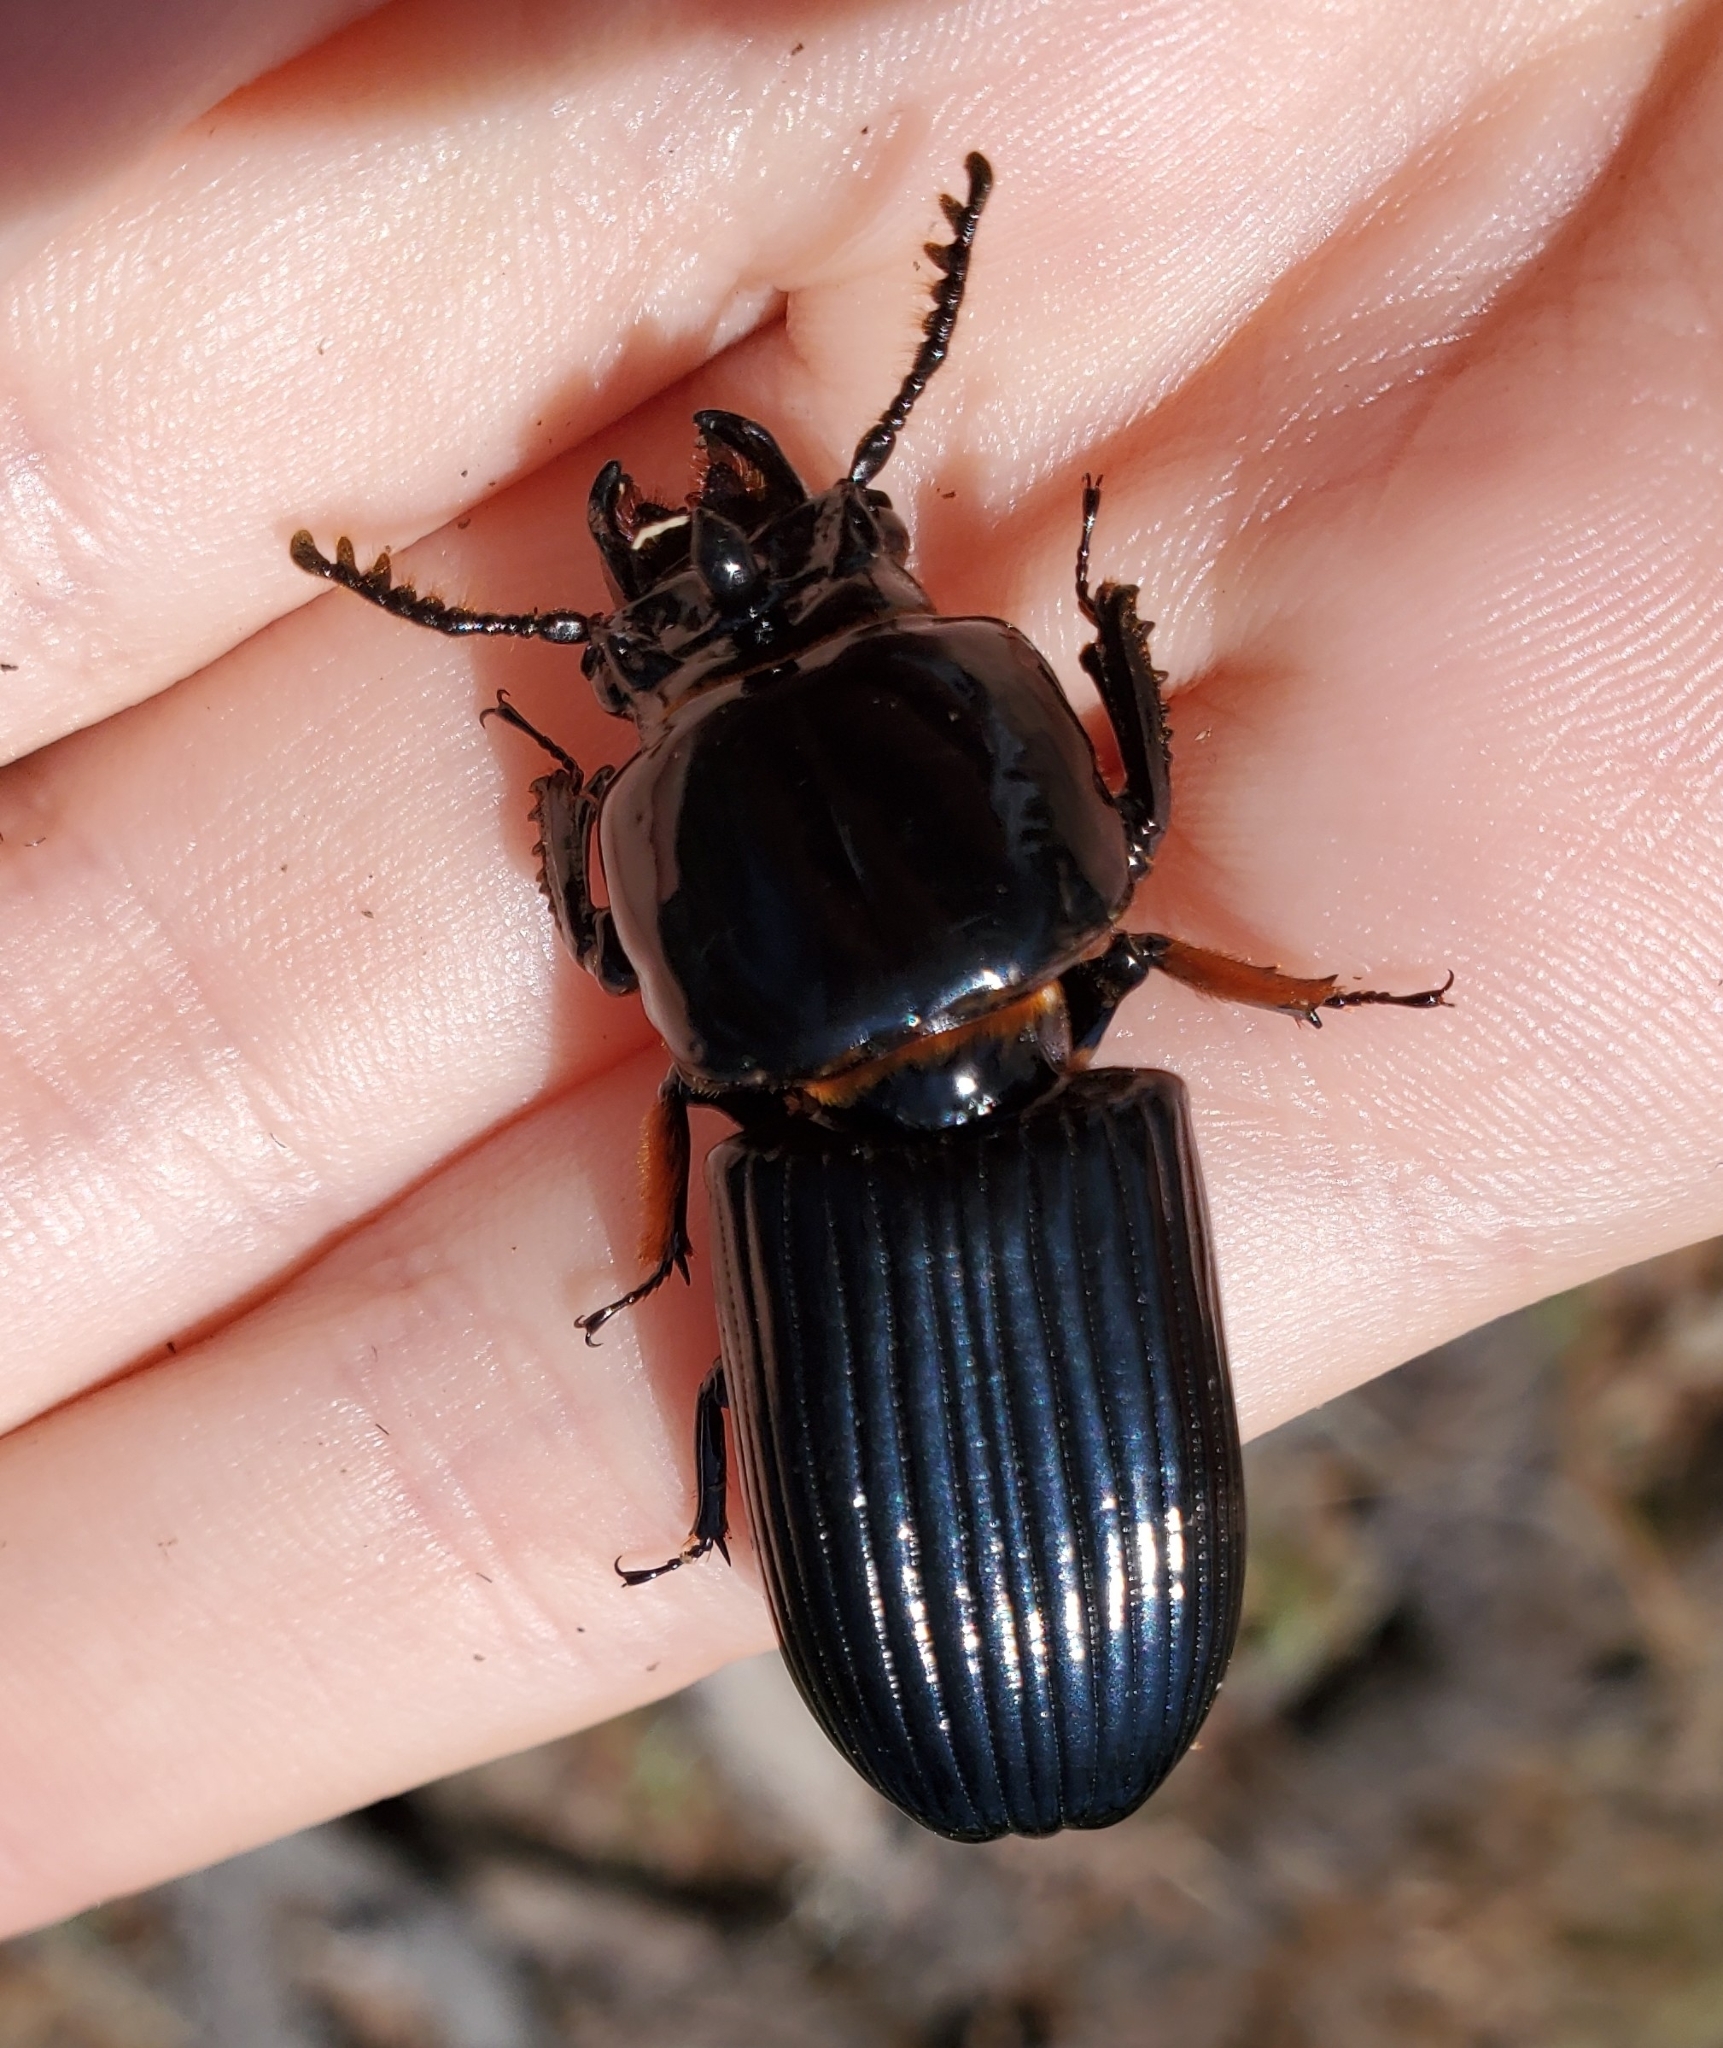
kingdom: Animalia
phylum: Arthropoda
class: Insecta
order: Coleoptera
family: Passalidae
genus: Odontotaenius
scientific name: Odontotaenius disjunctus
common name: Patent leather beetle
